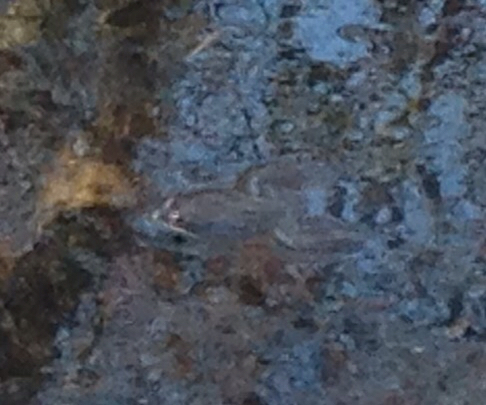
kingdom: Animalia
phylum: Chordata
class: Amphibia
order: Anura
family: Ranidae
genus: Lithobates
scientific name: Lithobates sylvaticus
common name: Wood frog
